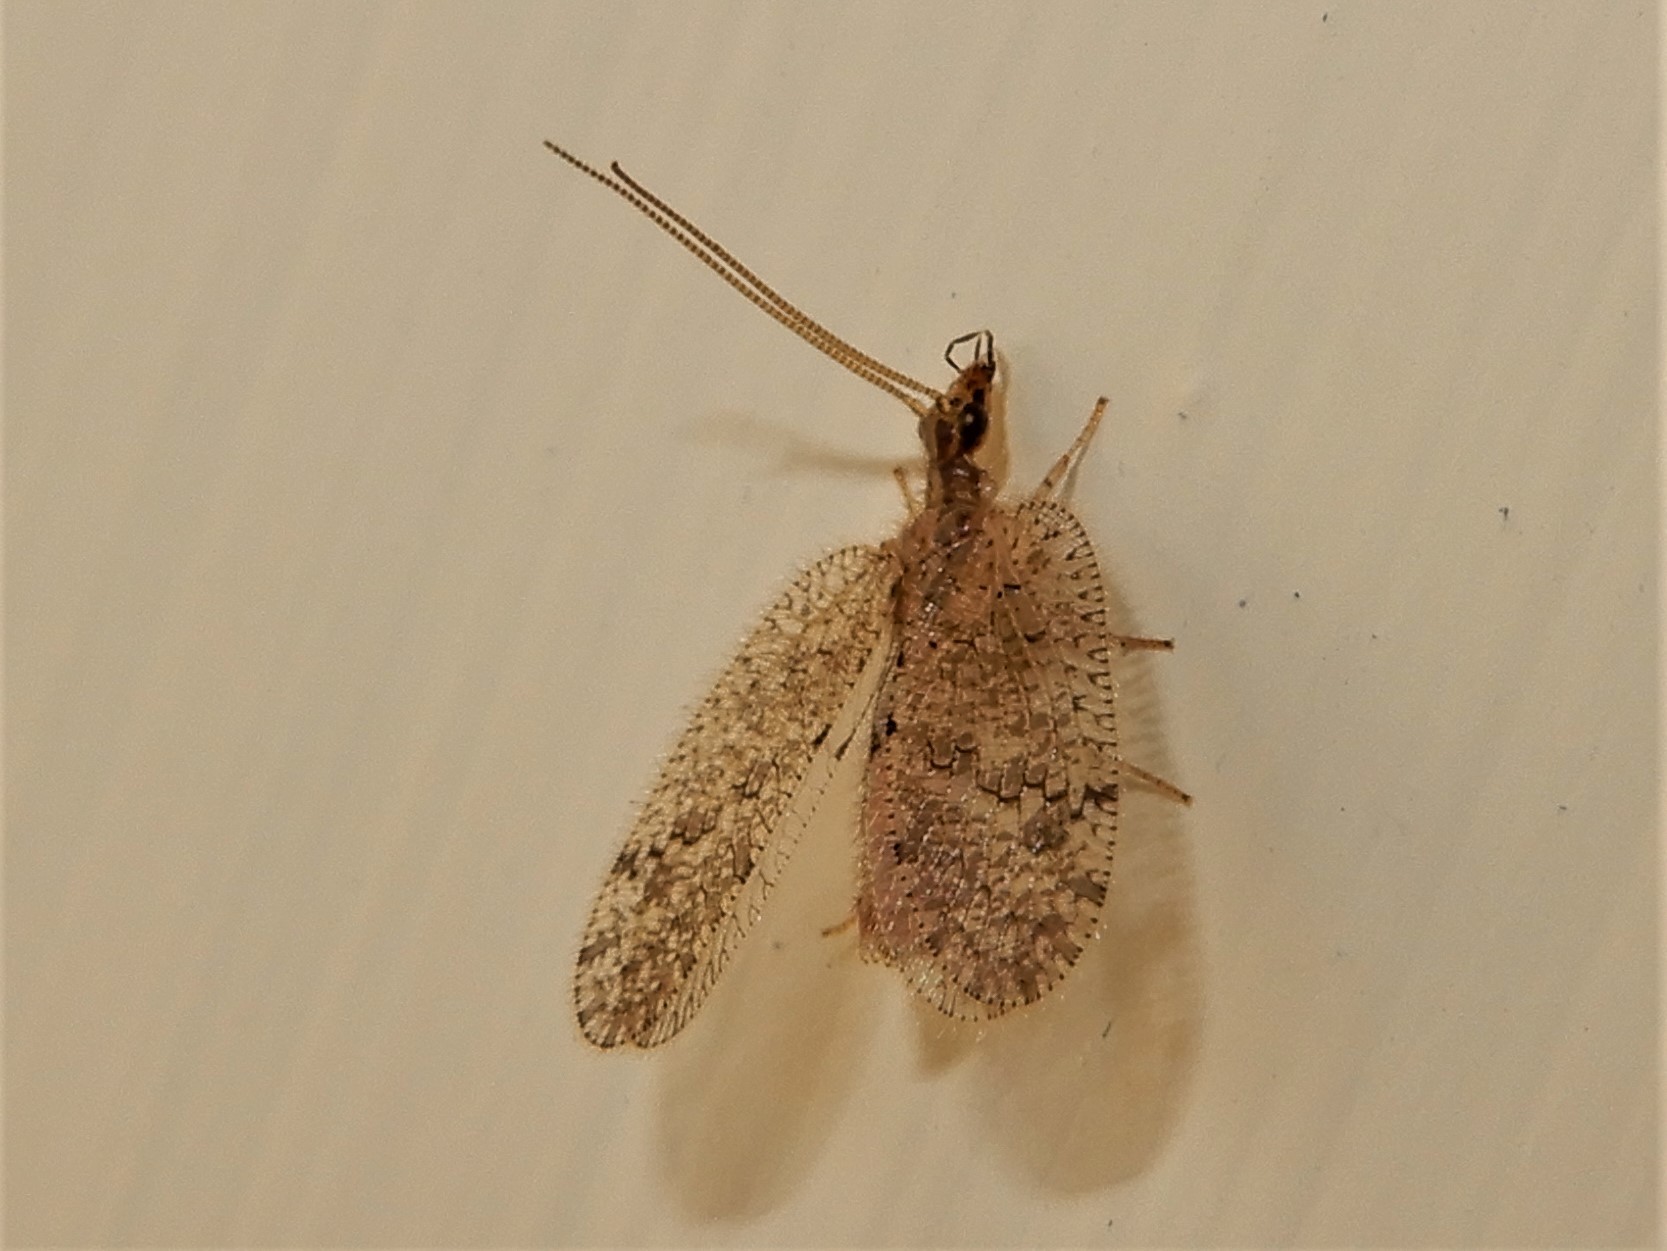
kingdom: Animalia
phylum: Arthropoda
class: Insecta
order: Neuroptera
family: Hemerobiidae
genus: Psectra
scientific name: Psectra nakaharai
